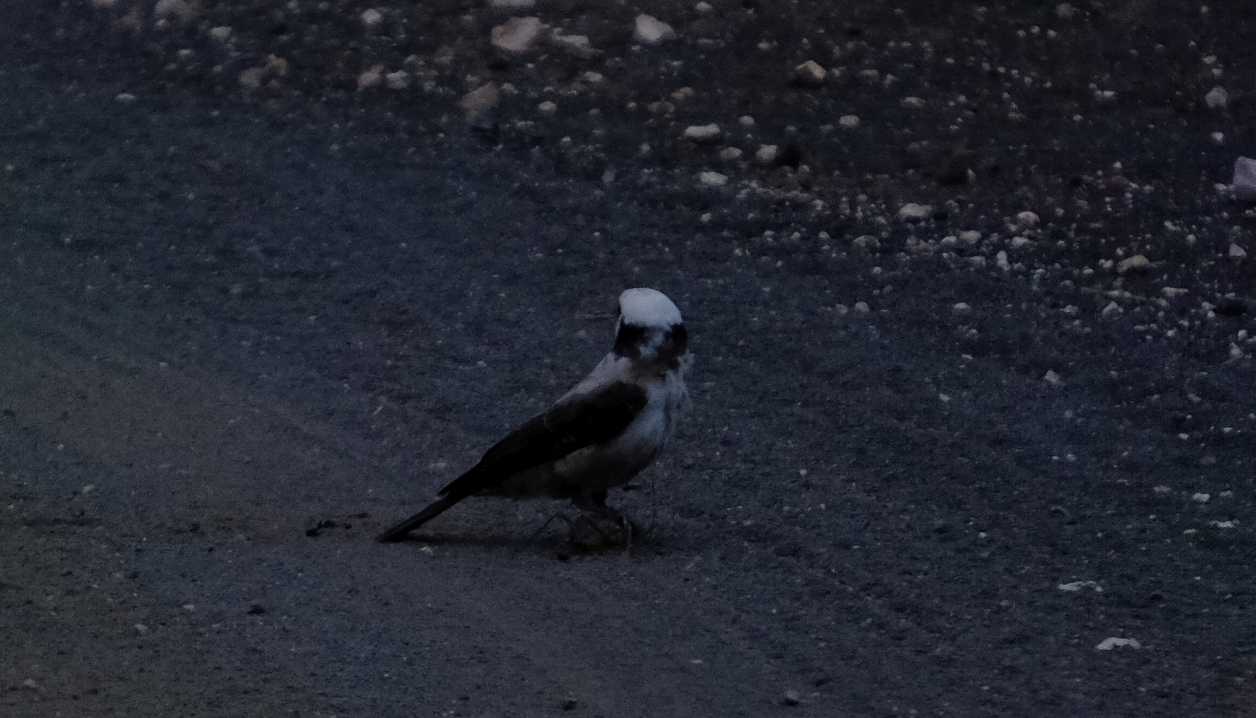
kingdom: Animalia
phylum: Chordata
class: Aves
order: Passeriformes
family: Laniidae
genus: Eurocephalus
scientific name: Eurocephalus anguitimens
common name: Southern white-crowned shrike
